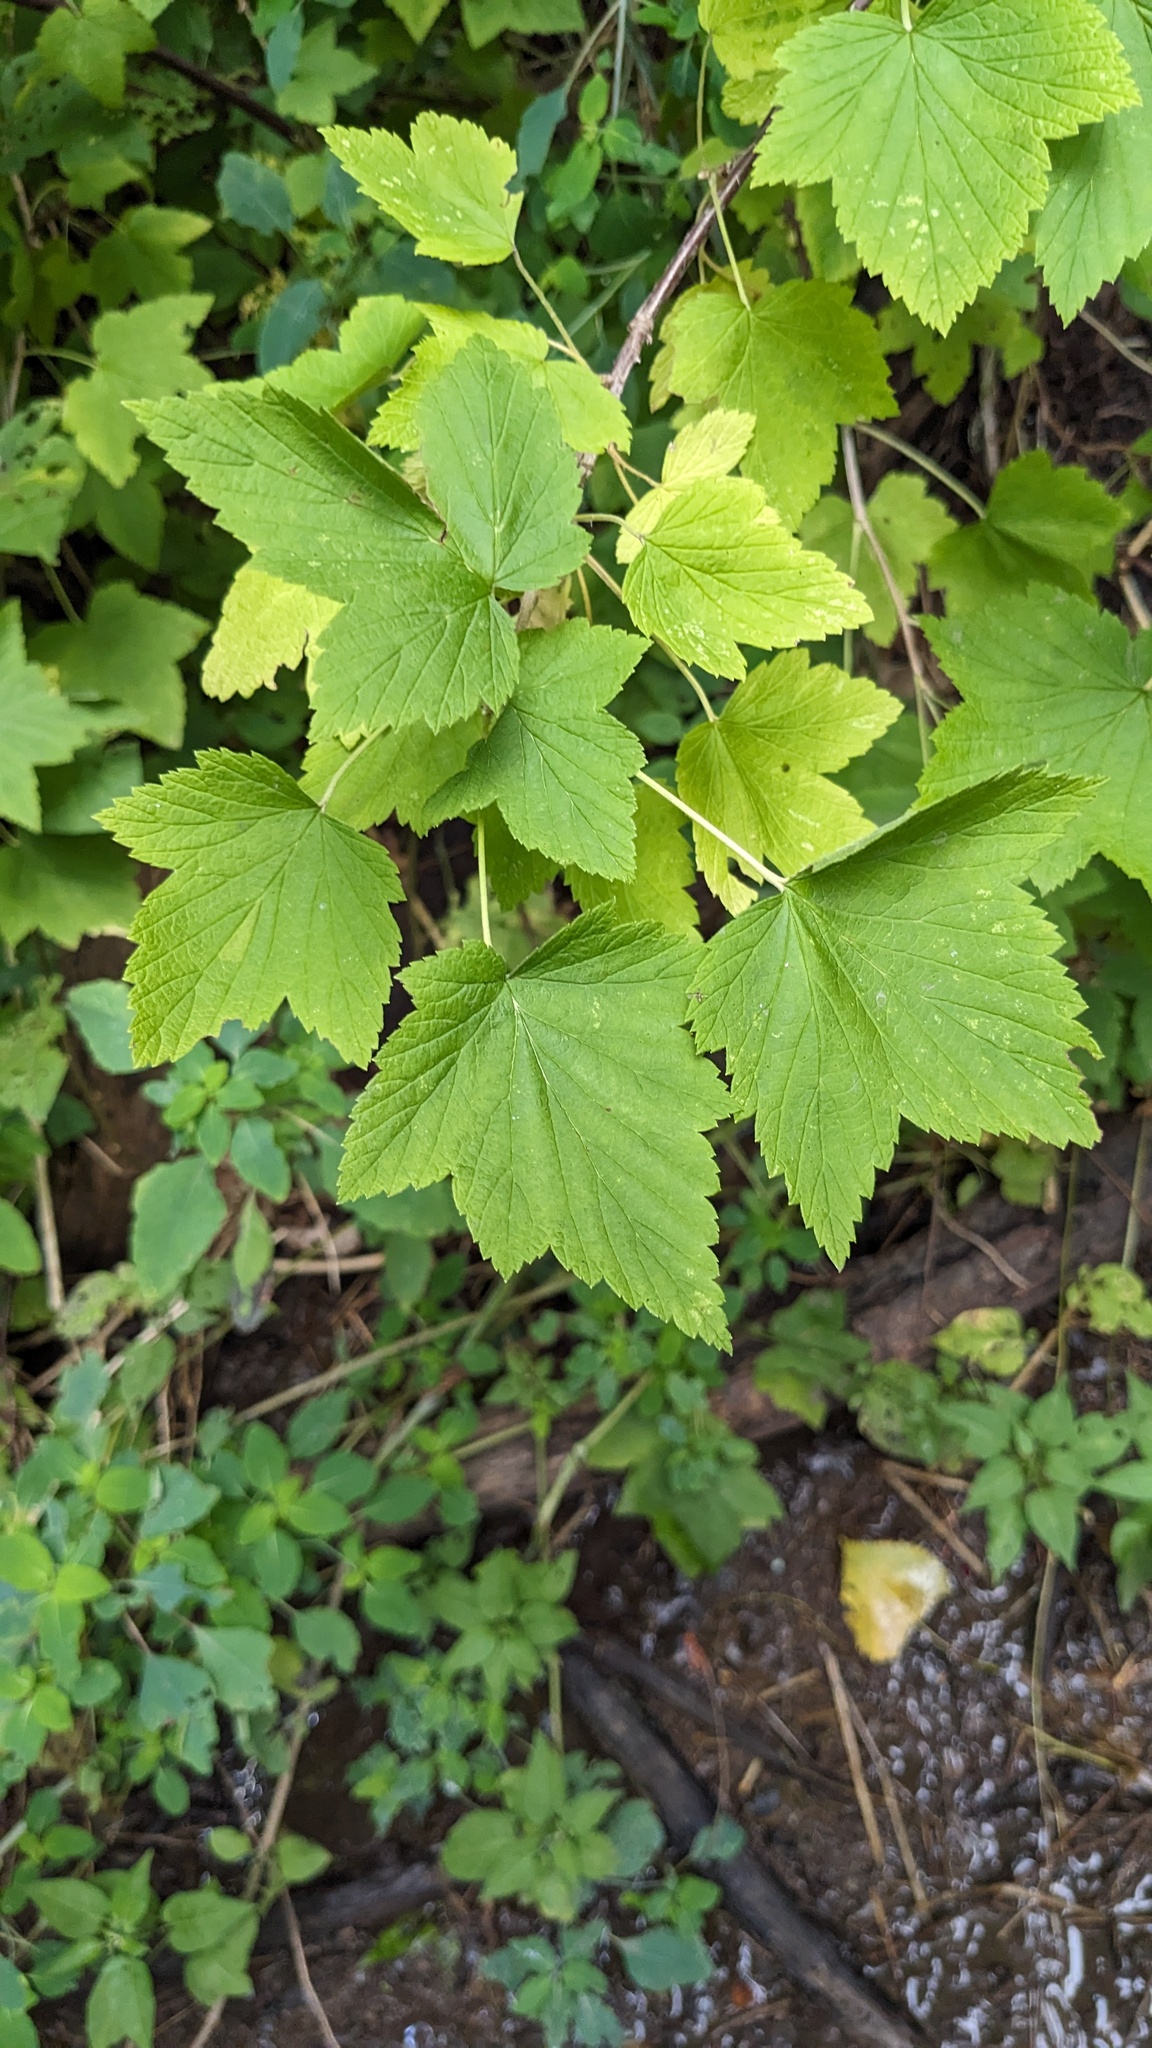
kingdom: Plantae
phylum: Tracheophyta
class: Magnoliopsida
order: Saxifragales
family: Grossulariaceae
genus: Ribes
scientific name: Ribes americanum
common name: American black currant
